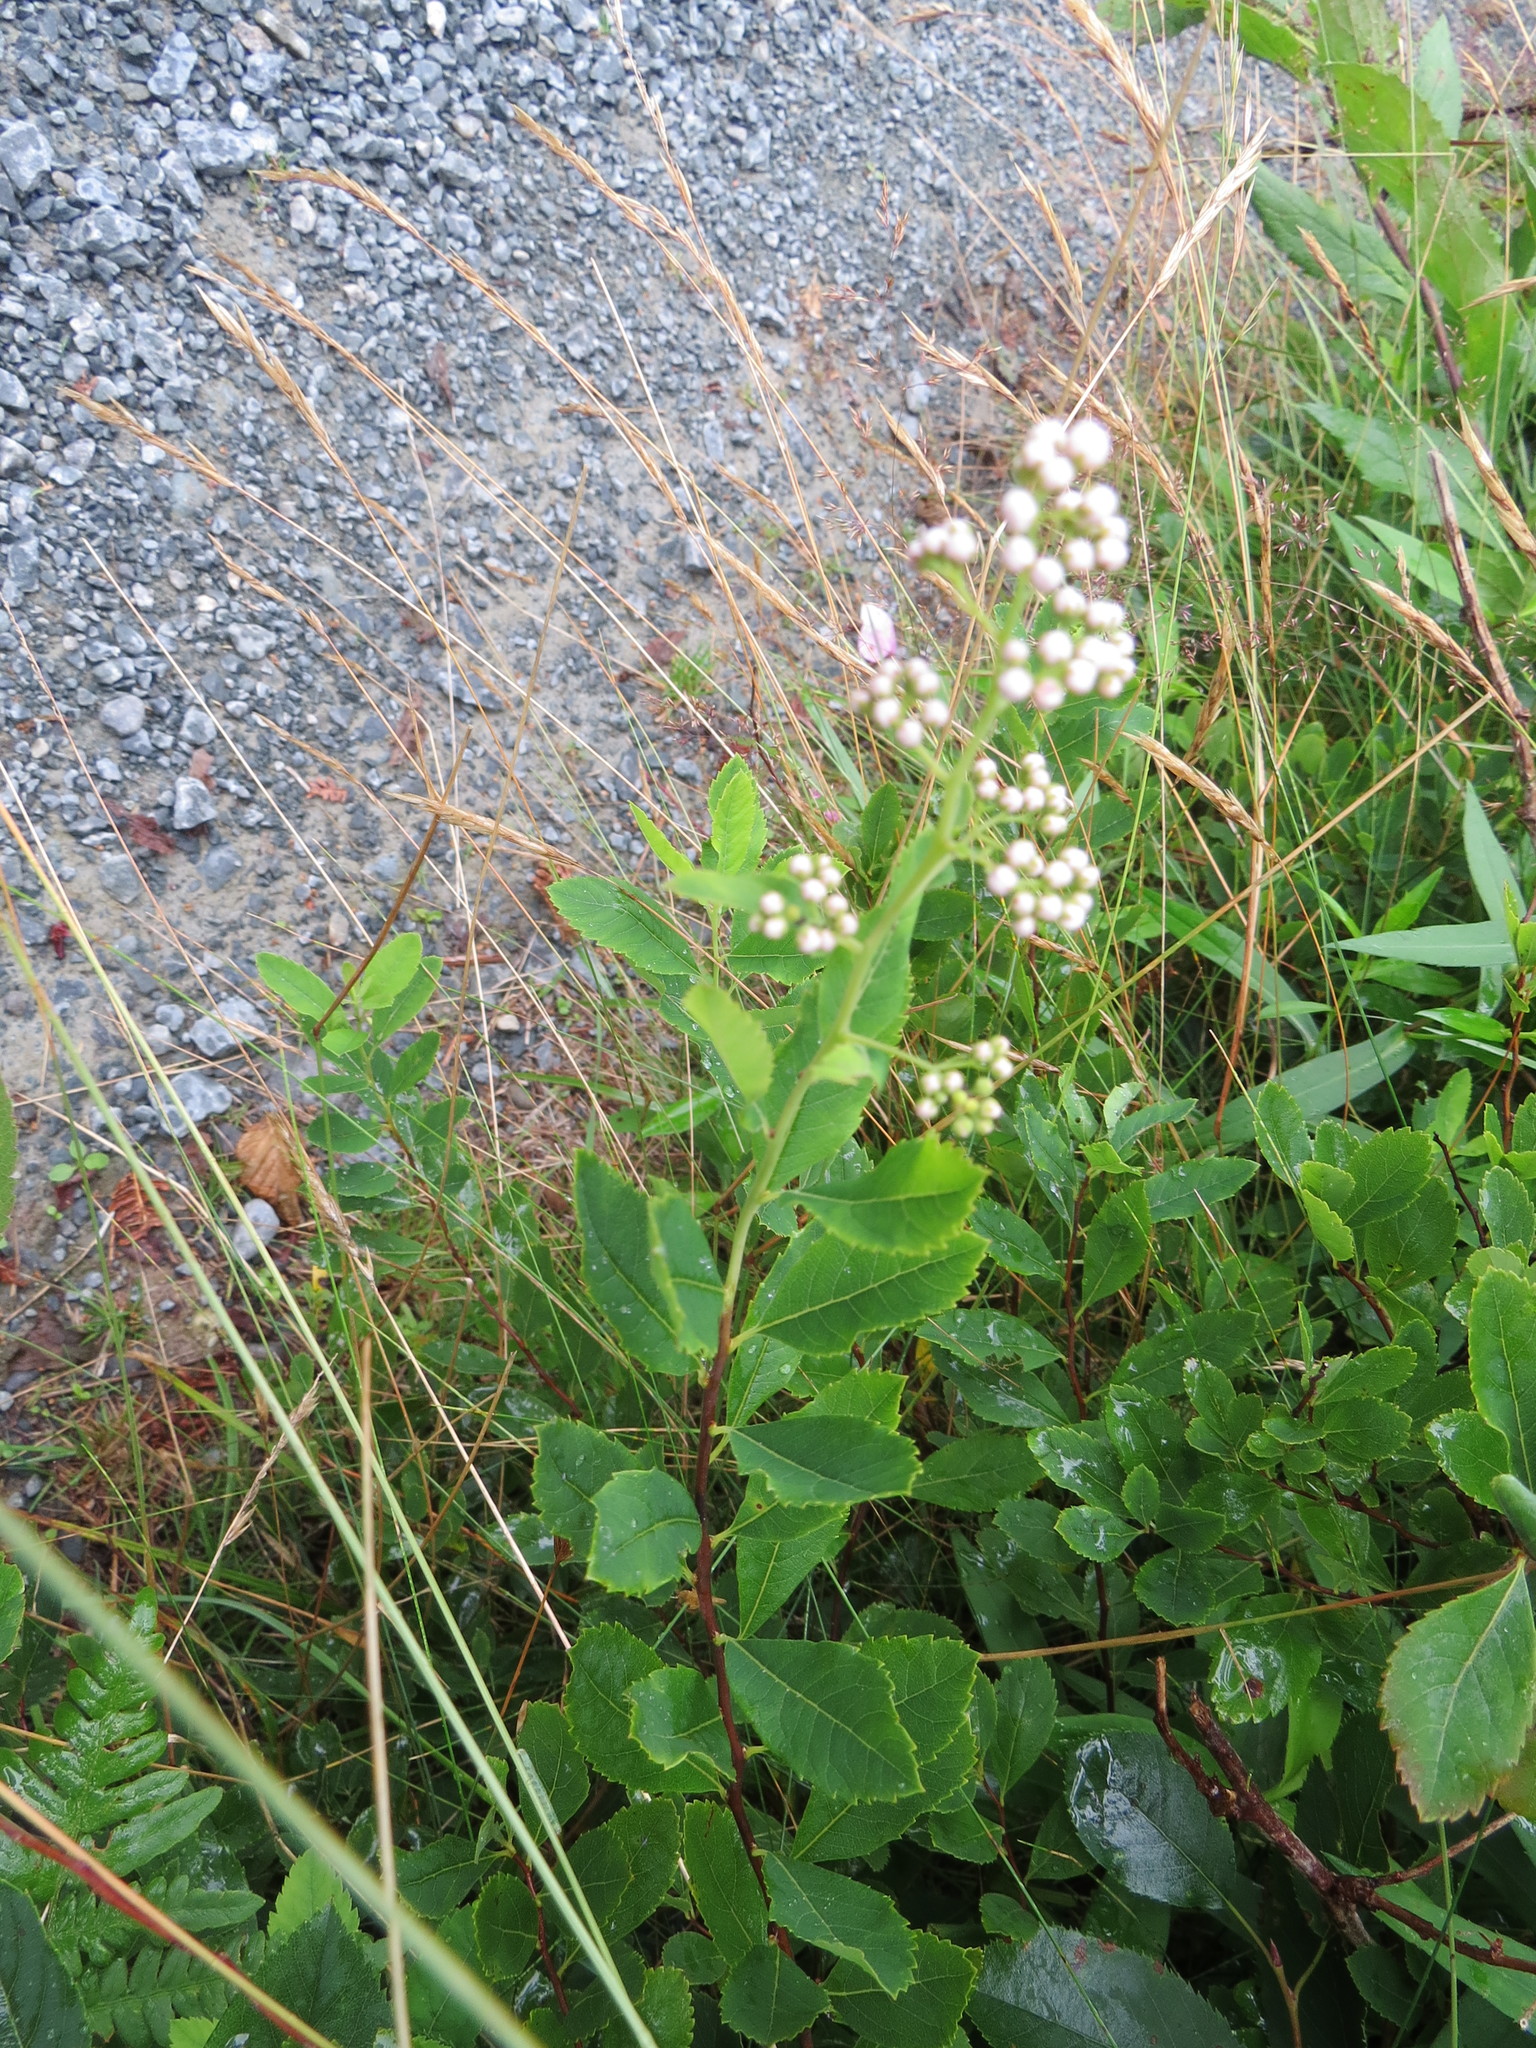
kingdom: Plantae
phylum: Tracheophyta
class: Magnoliopsida
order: Rosales
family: Rosaceae
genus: Spiraea
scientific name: Spiraea alba
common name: Pale bridewort
